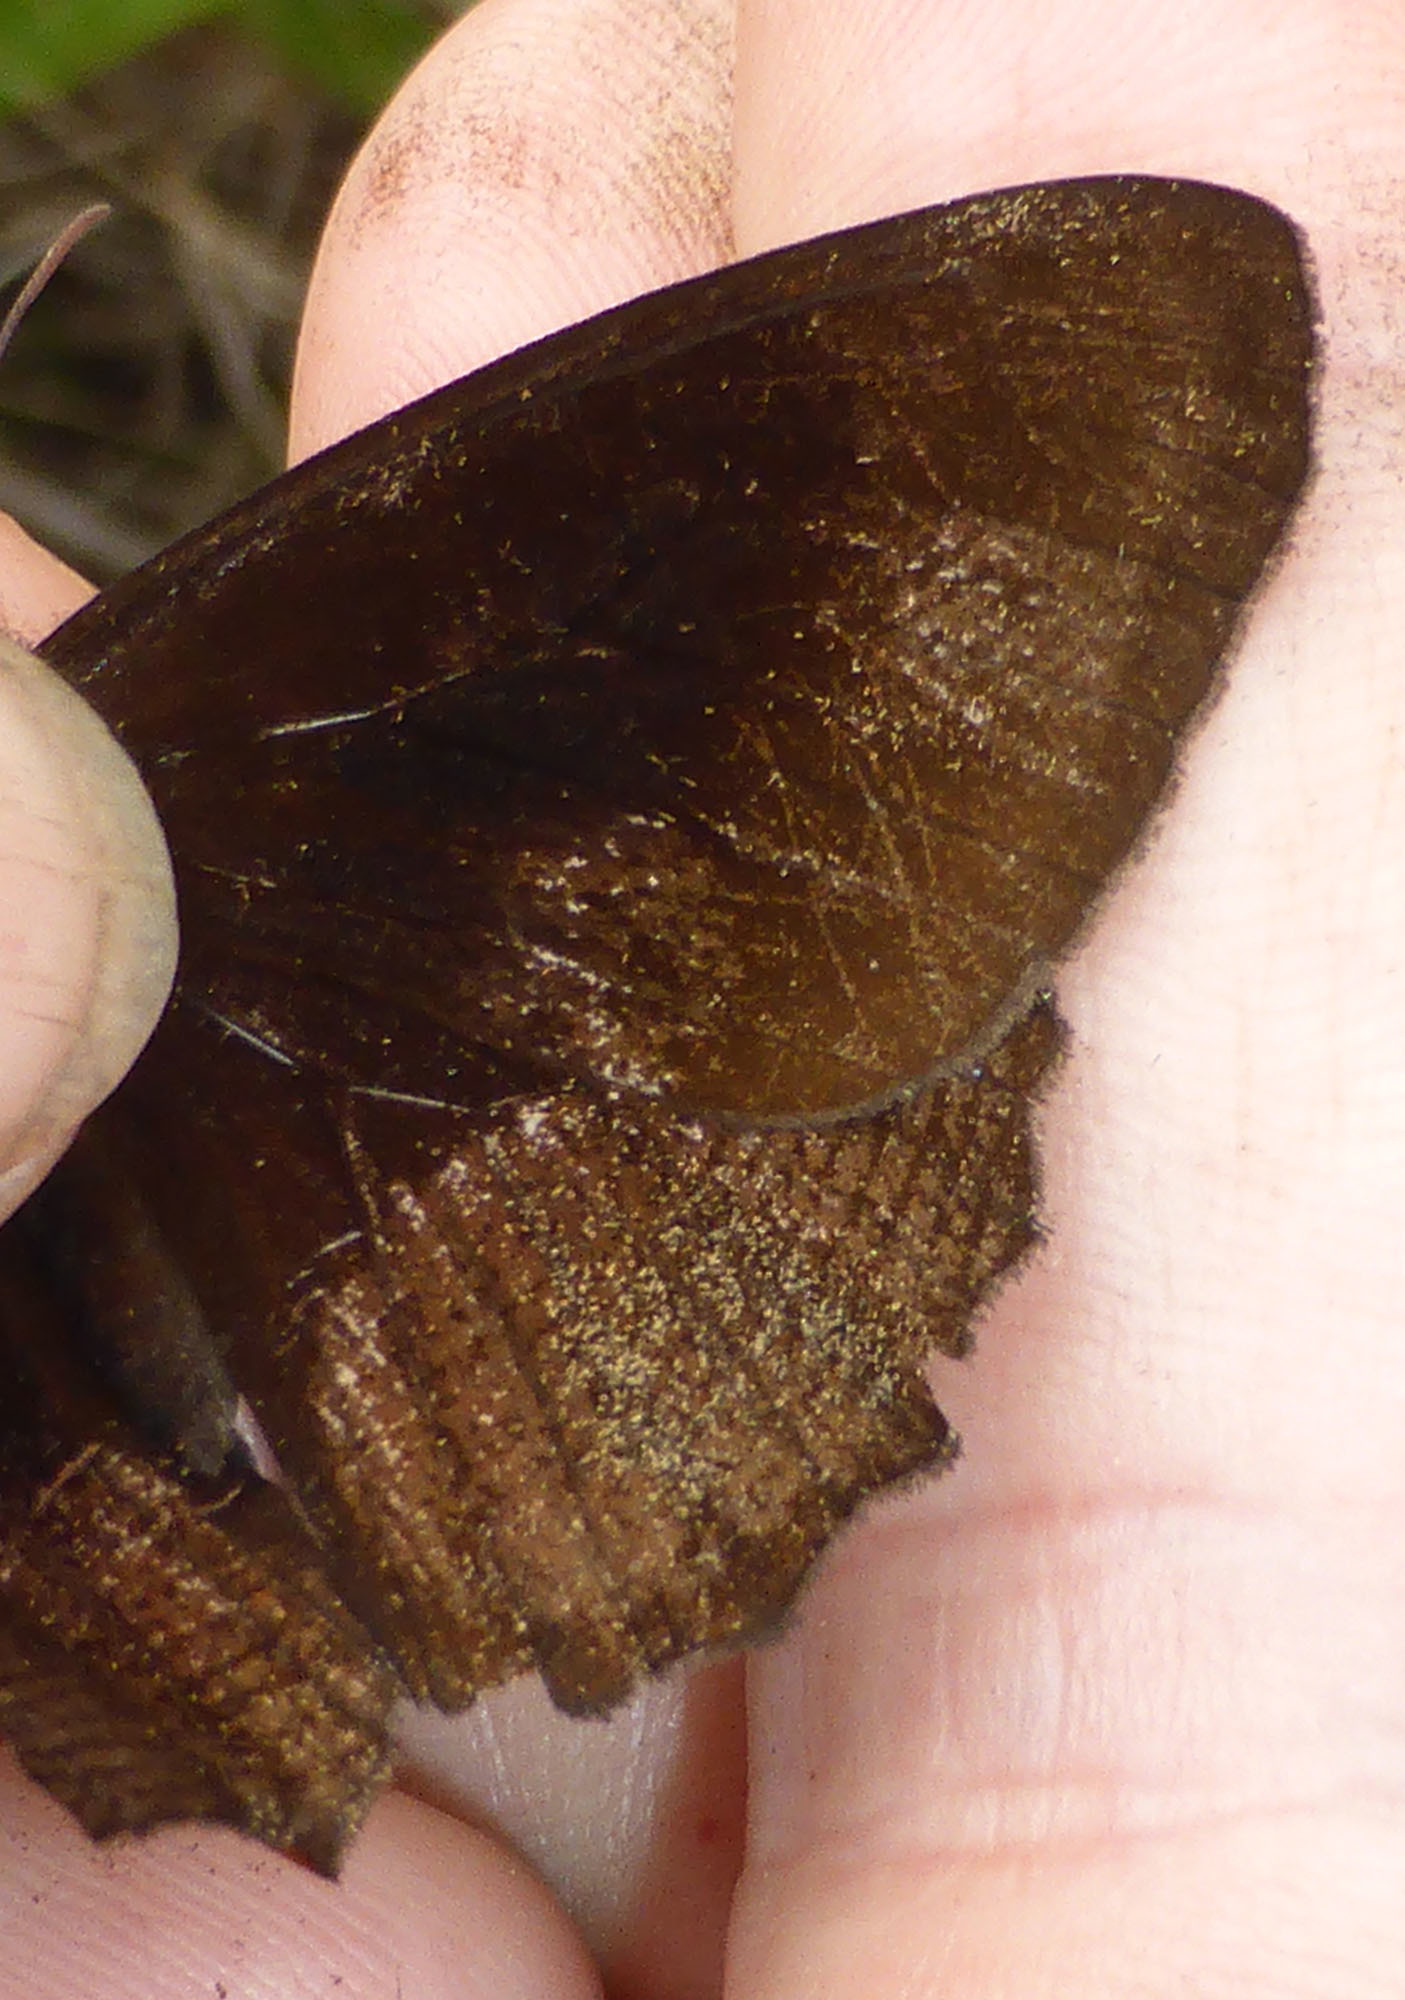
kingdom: Animalia
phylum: Arthropoda
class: Insecta
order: Lepidoptera
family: Nymphalidae
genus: Pedaliodes
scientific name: Pedaliodes roraimae
